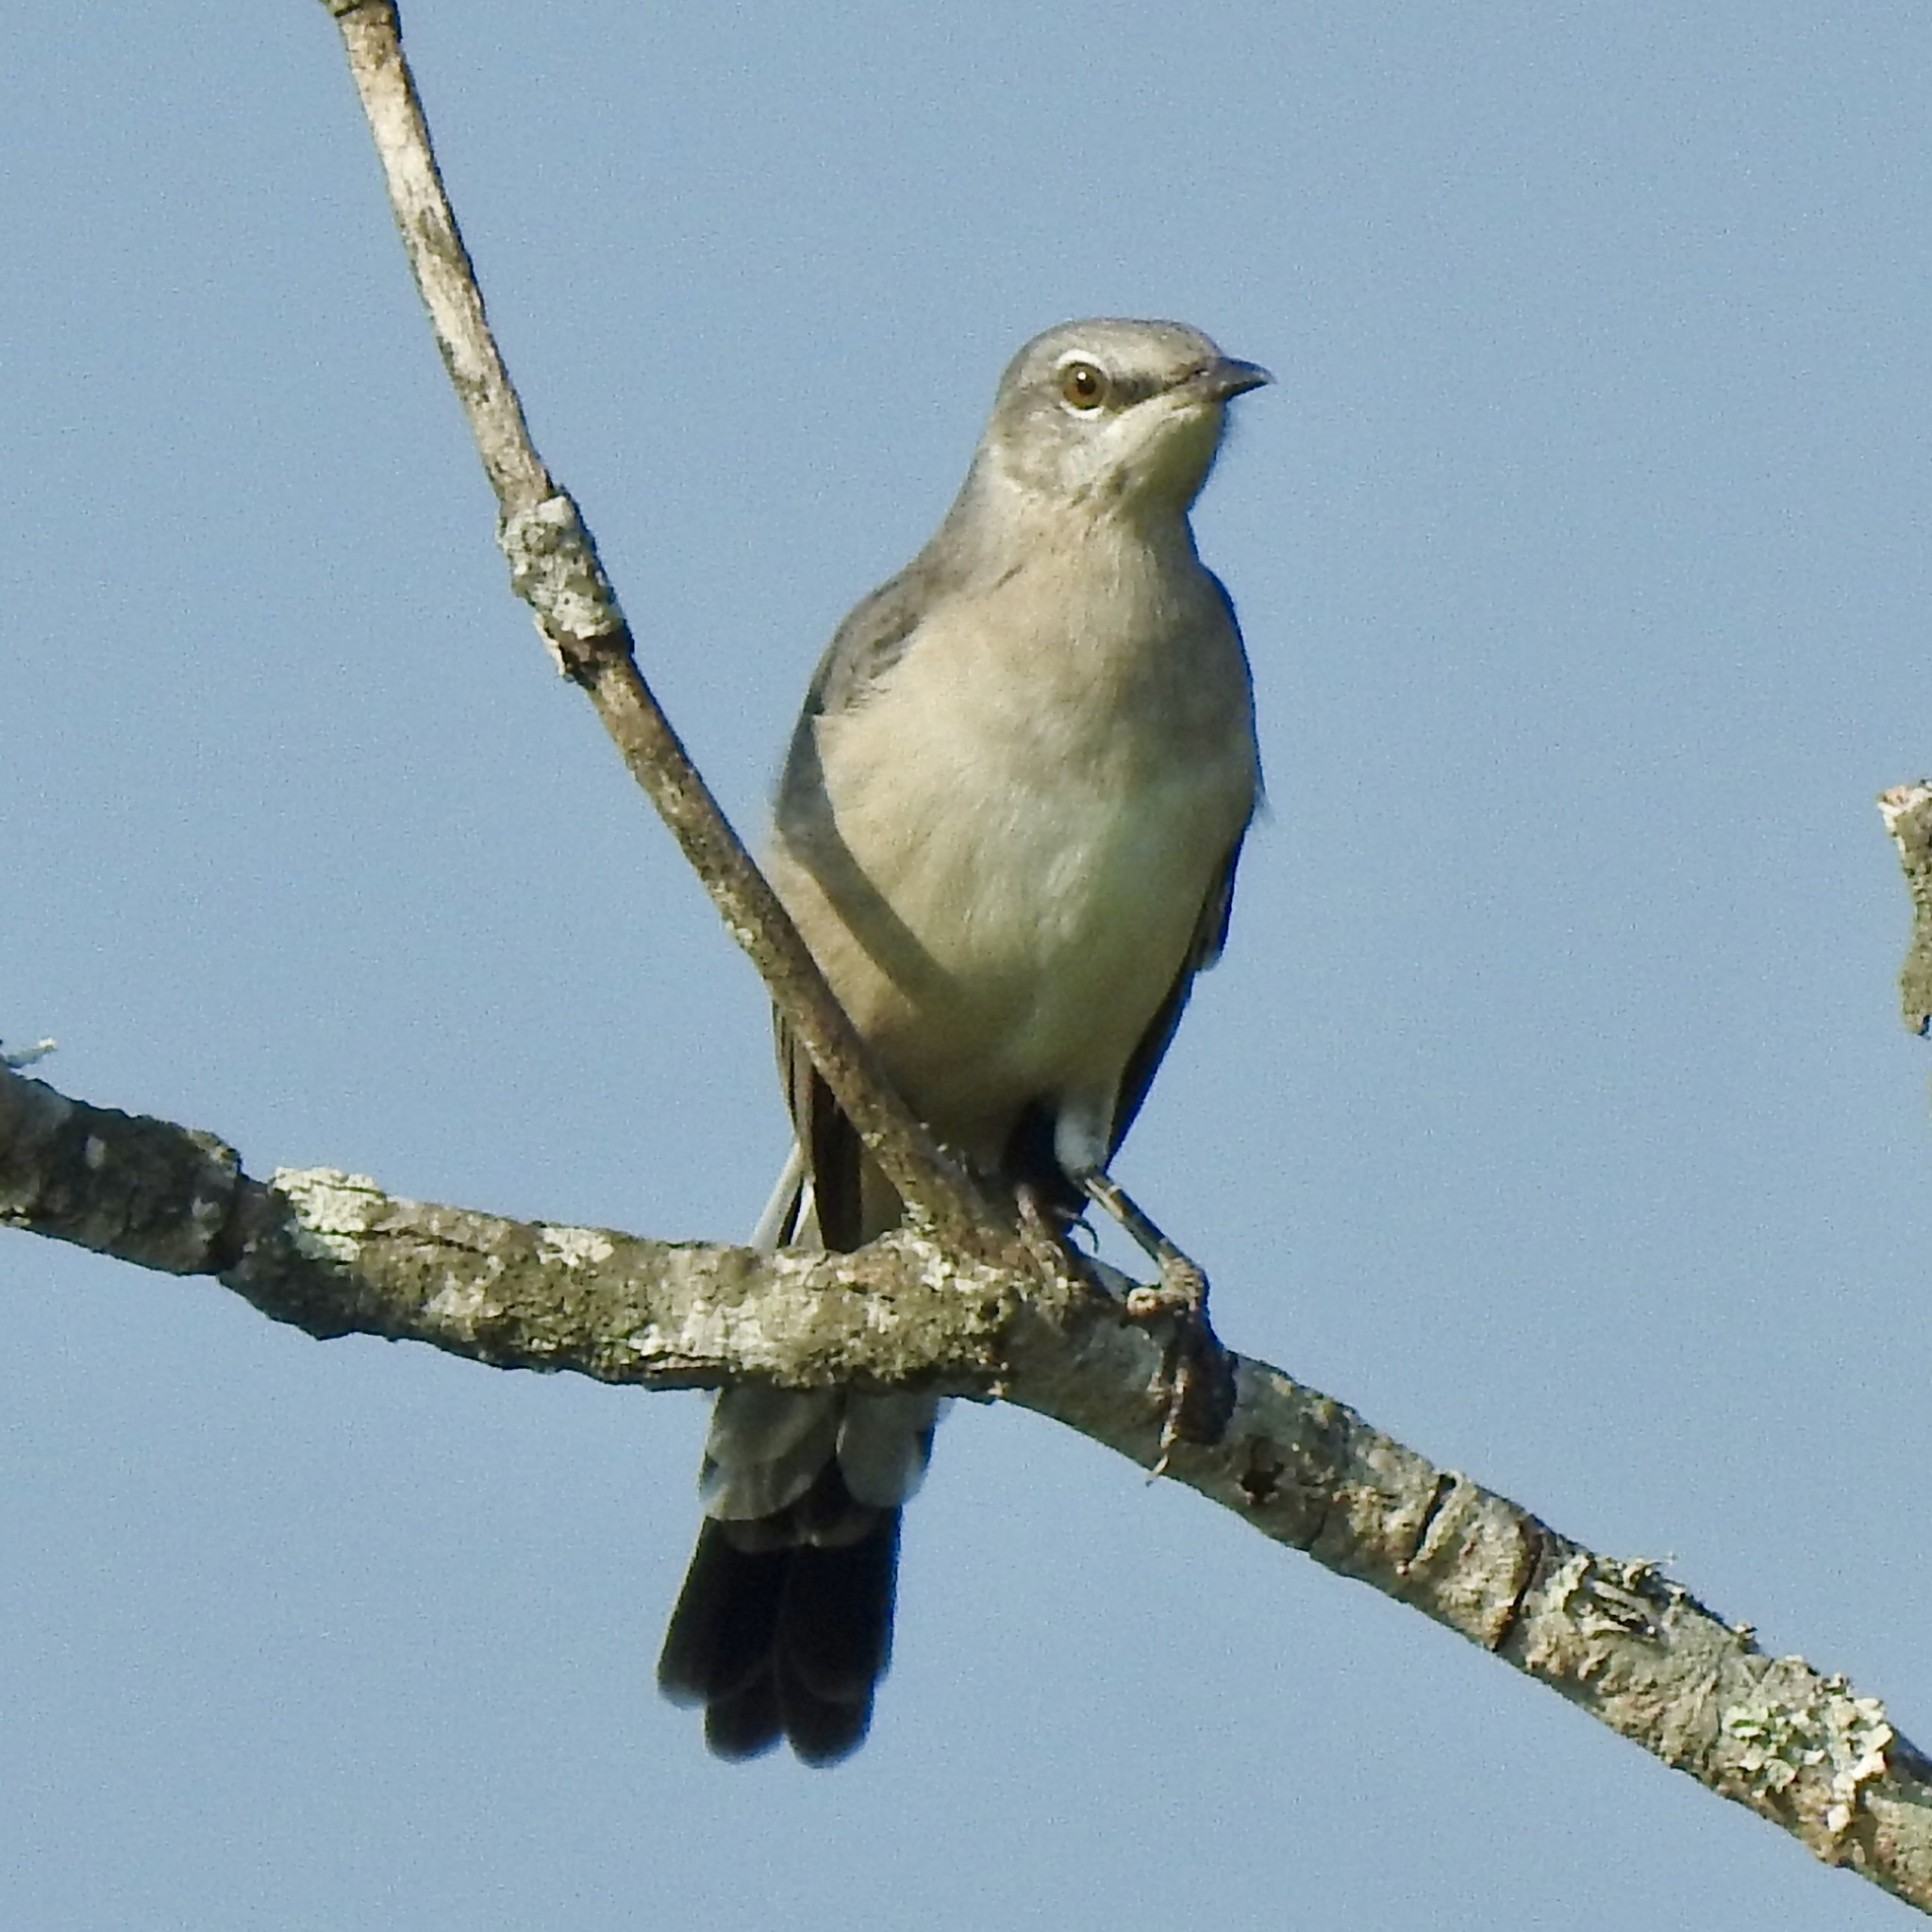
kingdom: Animalia
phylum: Chordata
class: Aves
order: Passeriformes
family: Mimidae
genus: Mimus
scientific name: Mimus polyglottos
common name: Northern mockingbird
